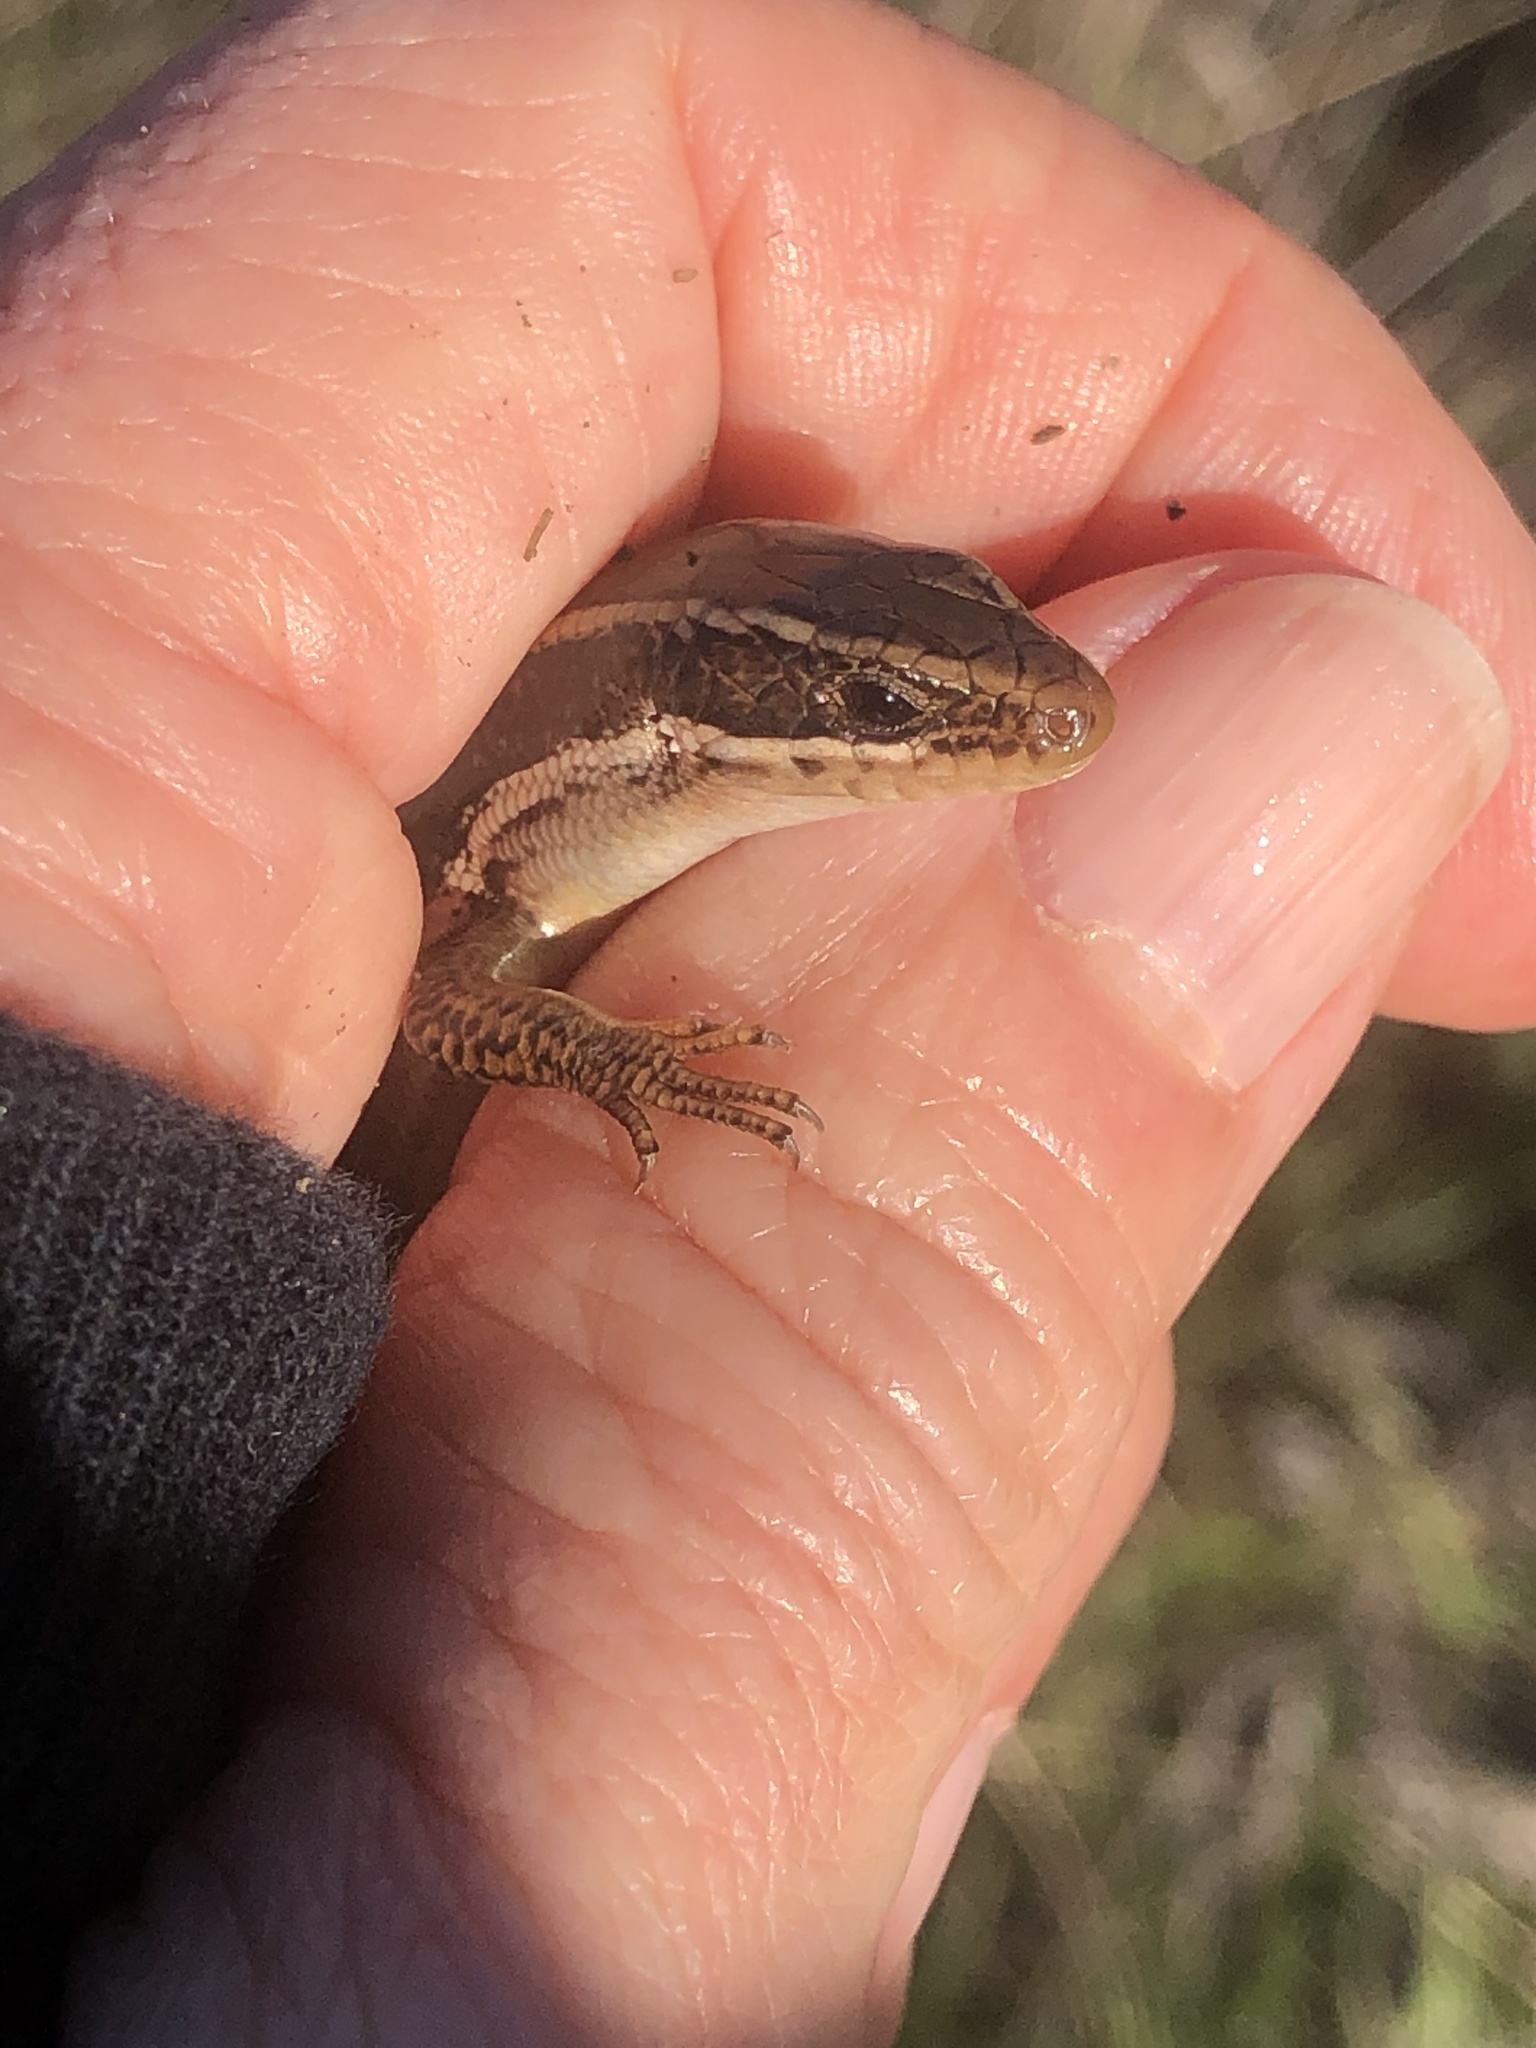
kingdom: Animalia
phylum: Chordata
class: Squamata
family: Scincidae
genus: Plestiodon
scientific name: Plestiodon skiltonianus
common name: Coronado island skink [interparietalis]
